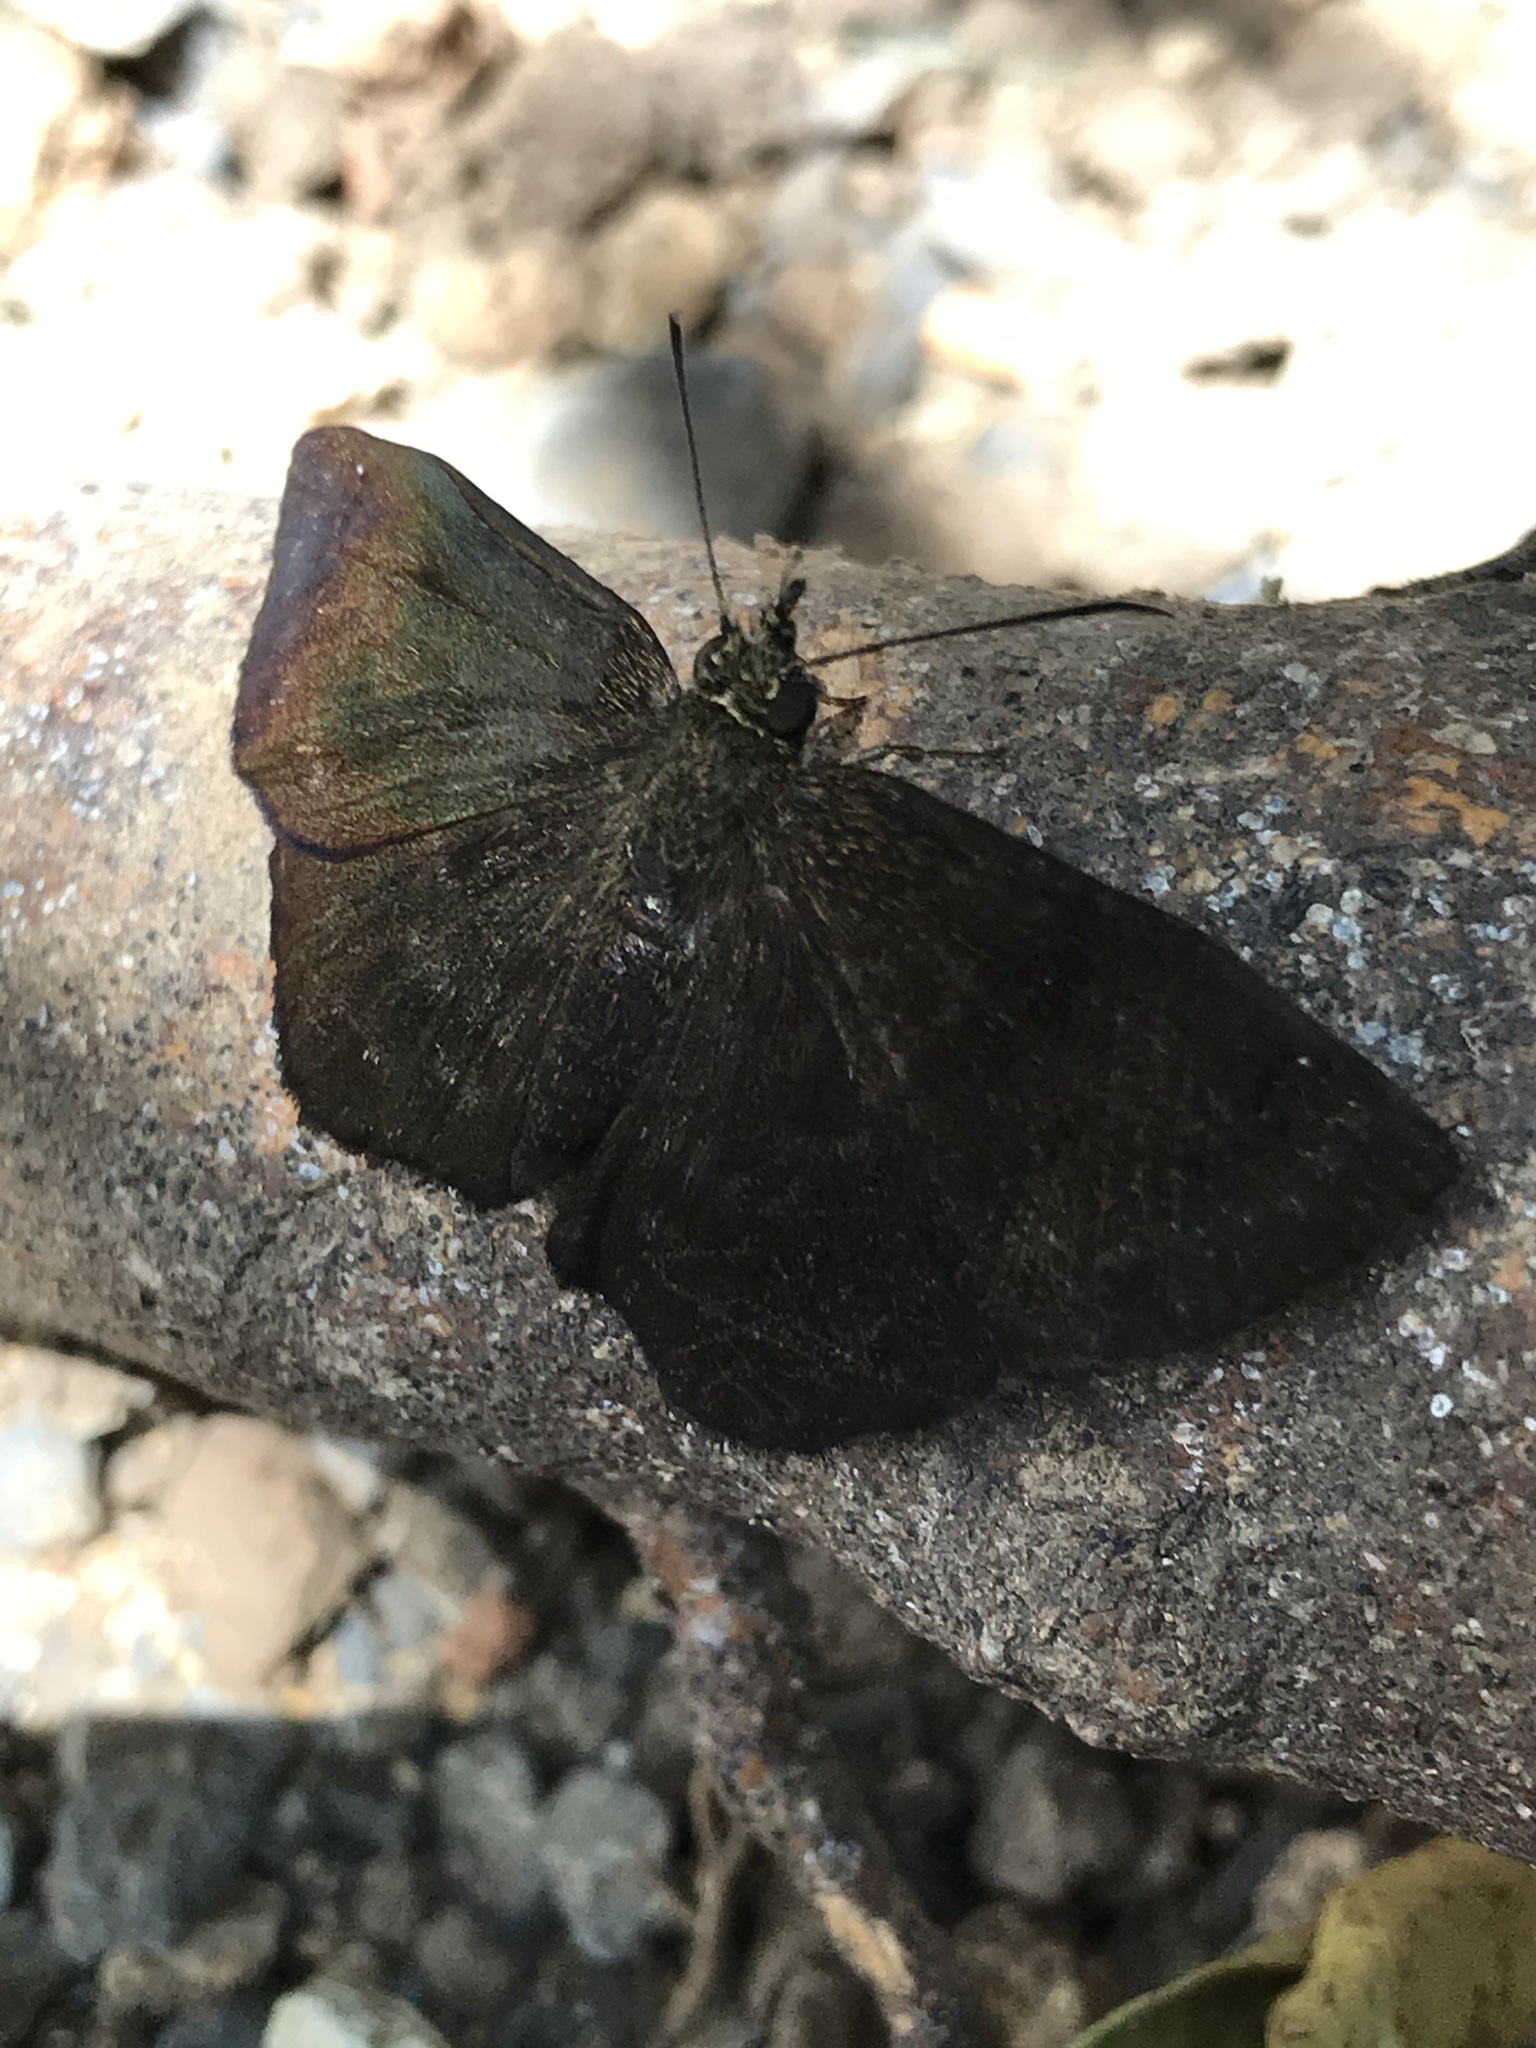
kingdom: Animalia
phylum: Arthropoda
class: Insecta
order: Lepidoptera
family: Hesperiidae
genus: Staphylus
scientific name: Staphylus ceos
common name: Golden-headed scallopwing
